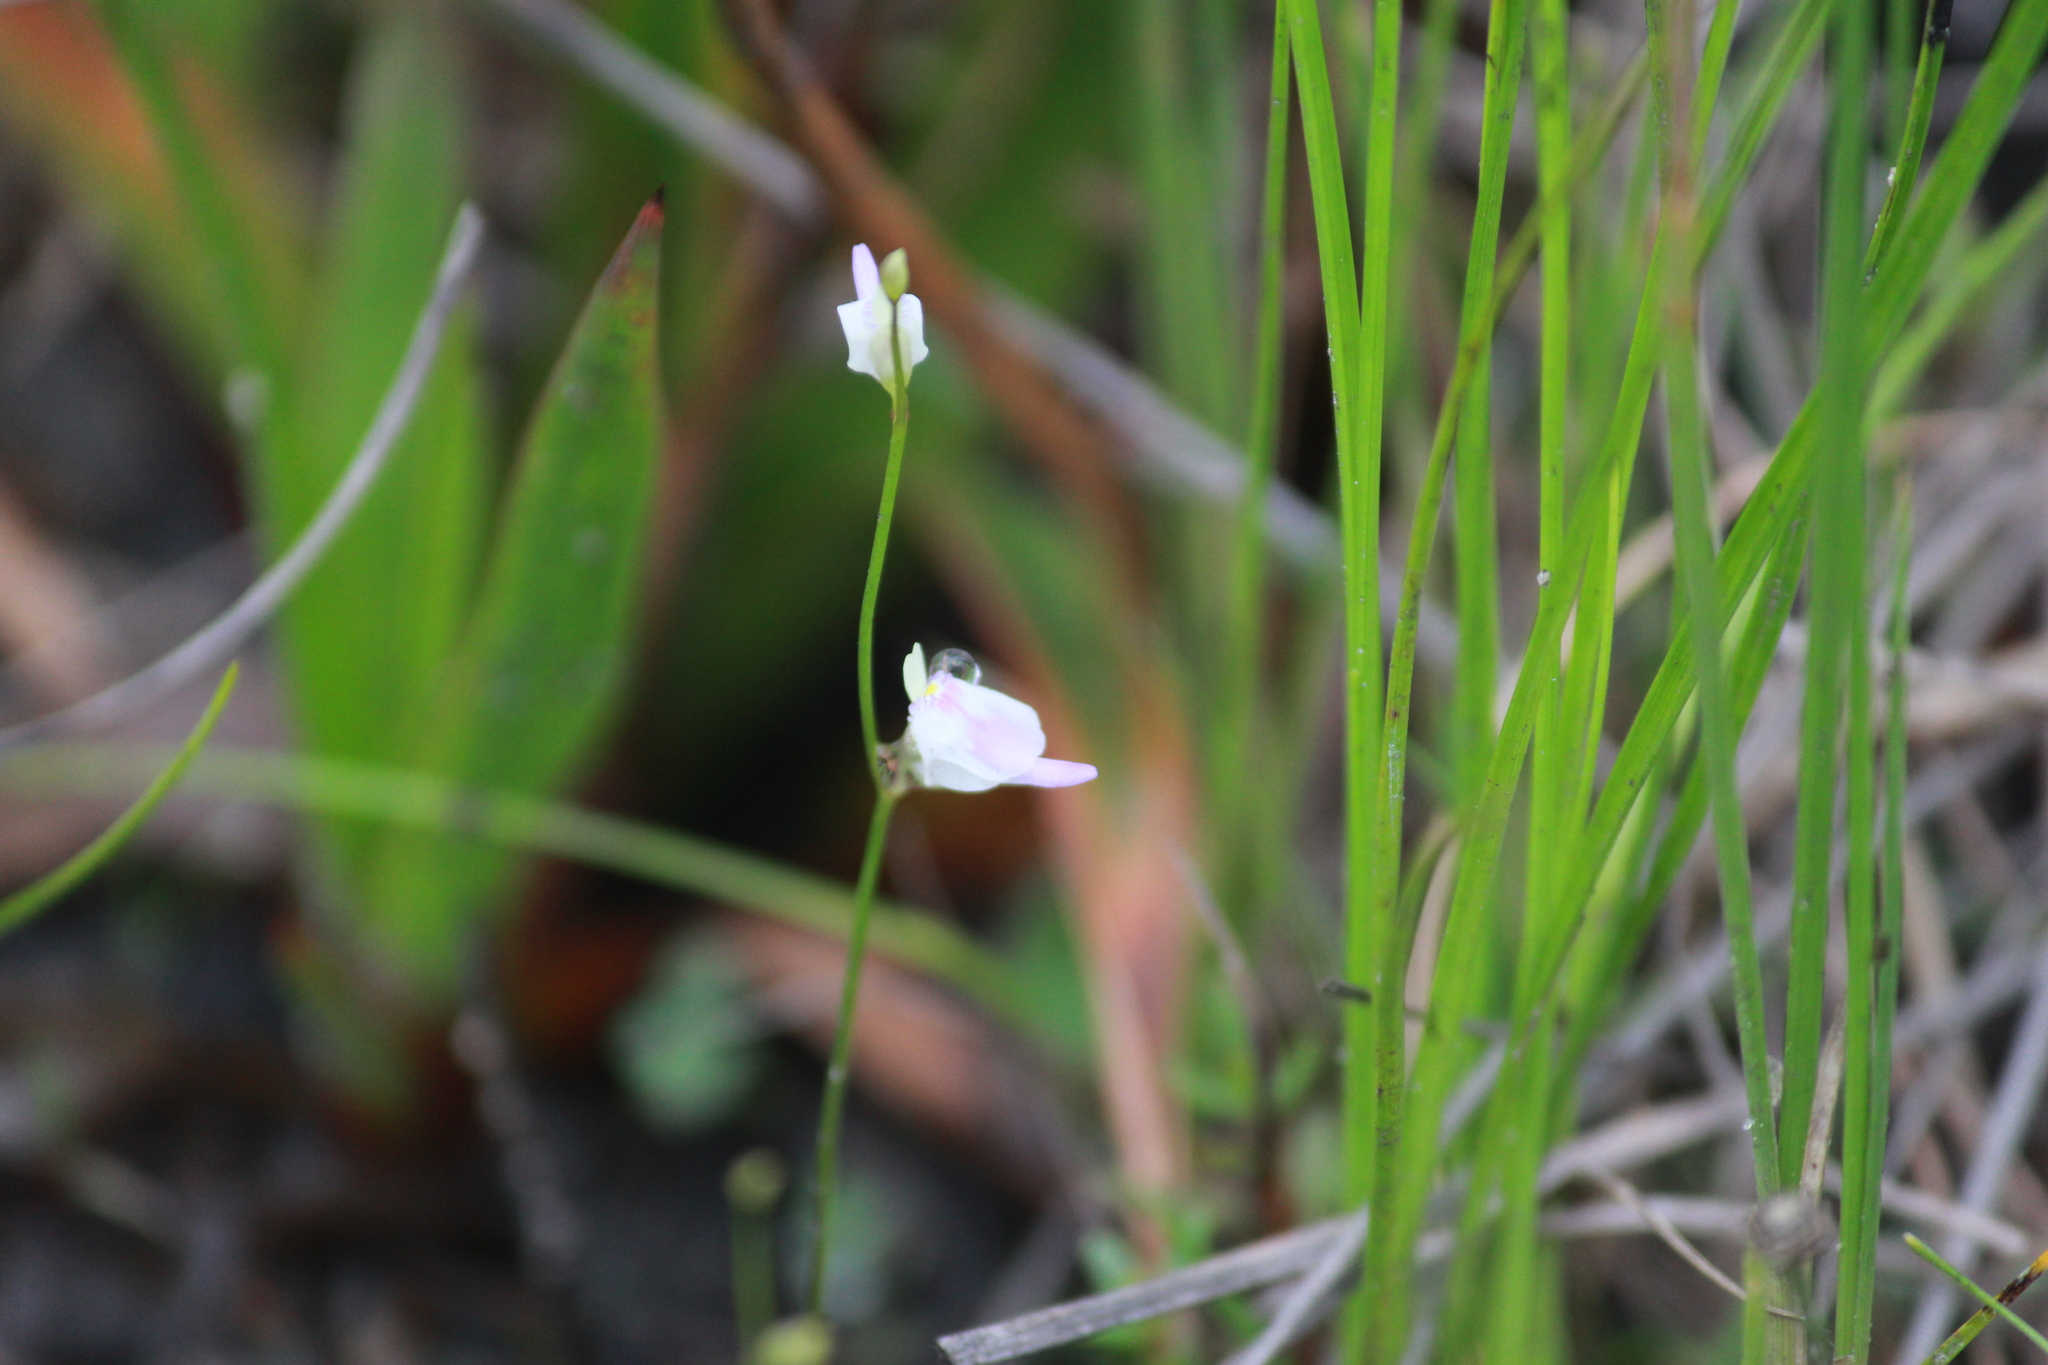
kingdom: Plantae
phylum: Tracheophyta
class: Magnoliopsida
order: Lamiales
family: Lentibulariaceae
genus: Utricularia
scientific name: Utricularia livida
